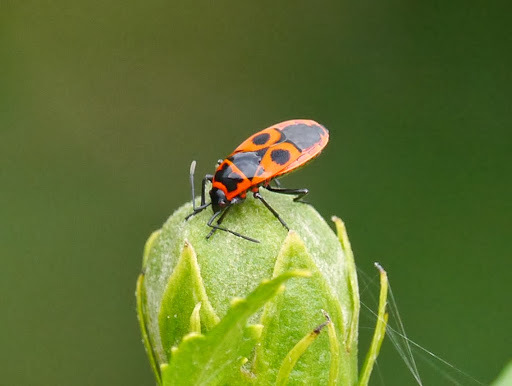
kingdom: Animalia
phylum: Arthropoda
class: Insecta
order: Hemiptera
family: Pyrrhocoridae
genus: Pyrrhocoris
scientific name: Pyrrhocoris apterus
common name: Firebug
